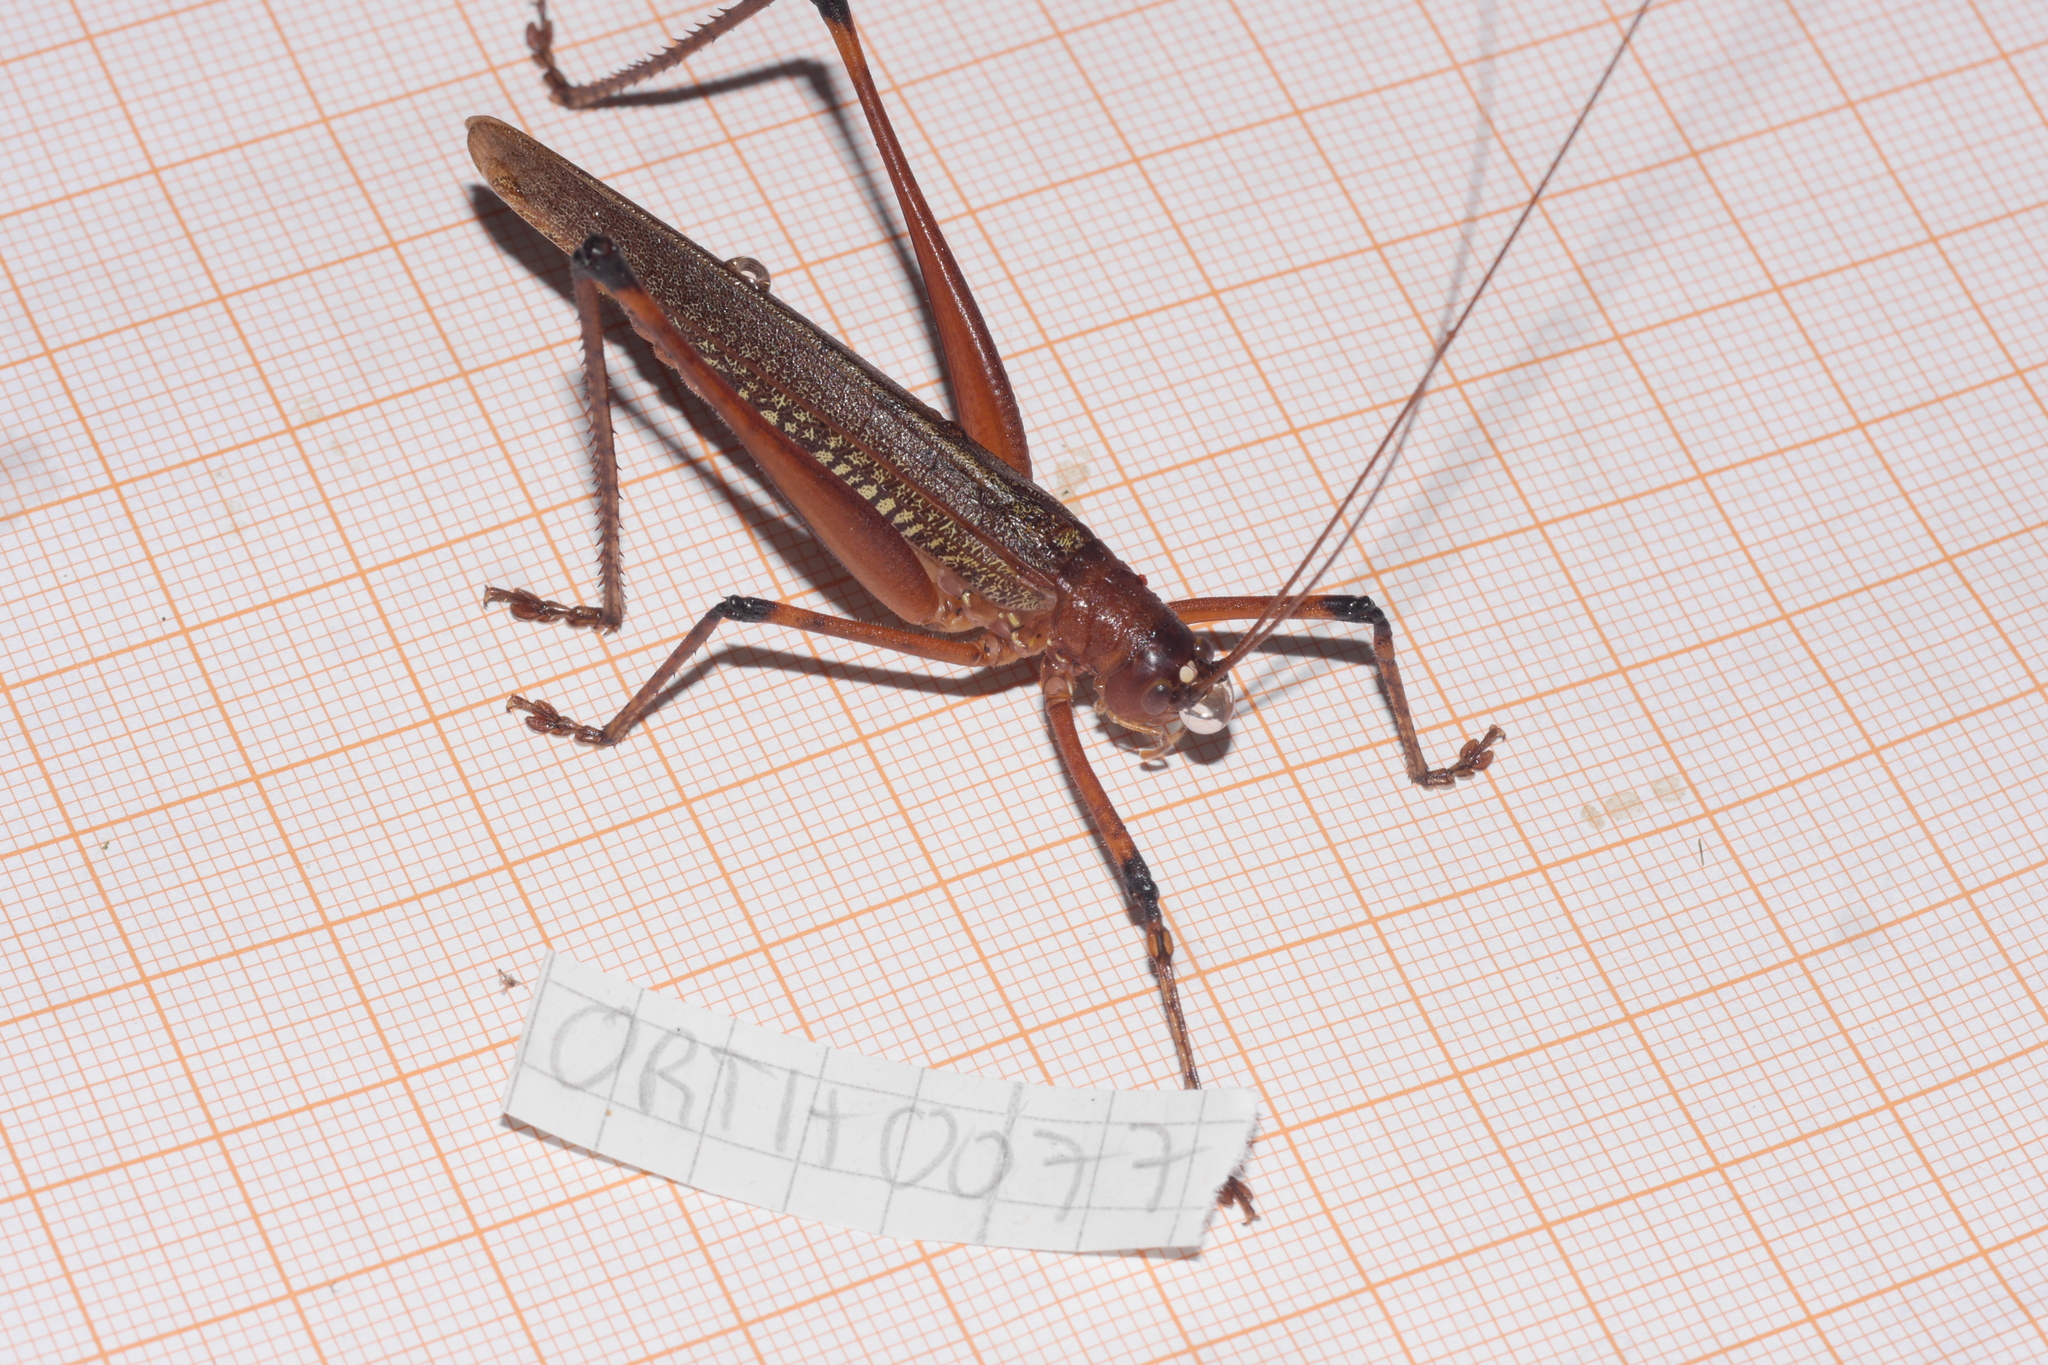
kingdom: Animalia
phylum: Arthropoda
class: Insecta
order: Orthoptera
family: Tettigoniidae
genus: Ischnomela
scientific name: Ischnomela gracilis
